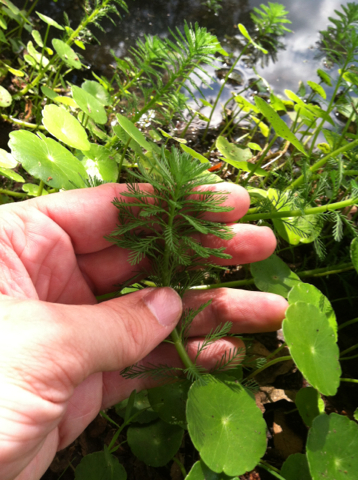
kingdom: Plantae
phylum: Tracheophyta
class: Magnoliopsida
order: Saxifragales
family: Haloragaceae
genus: Myriophyllum
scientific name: Myriophyllum aquaticum
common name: Parrot's feather
